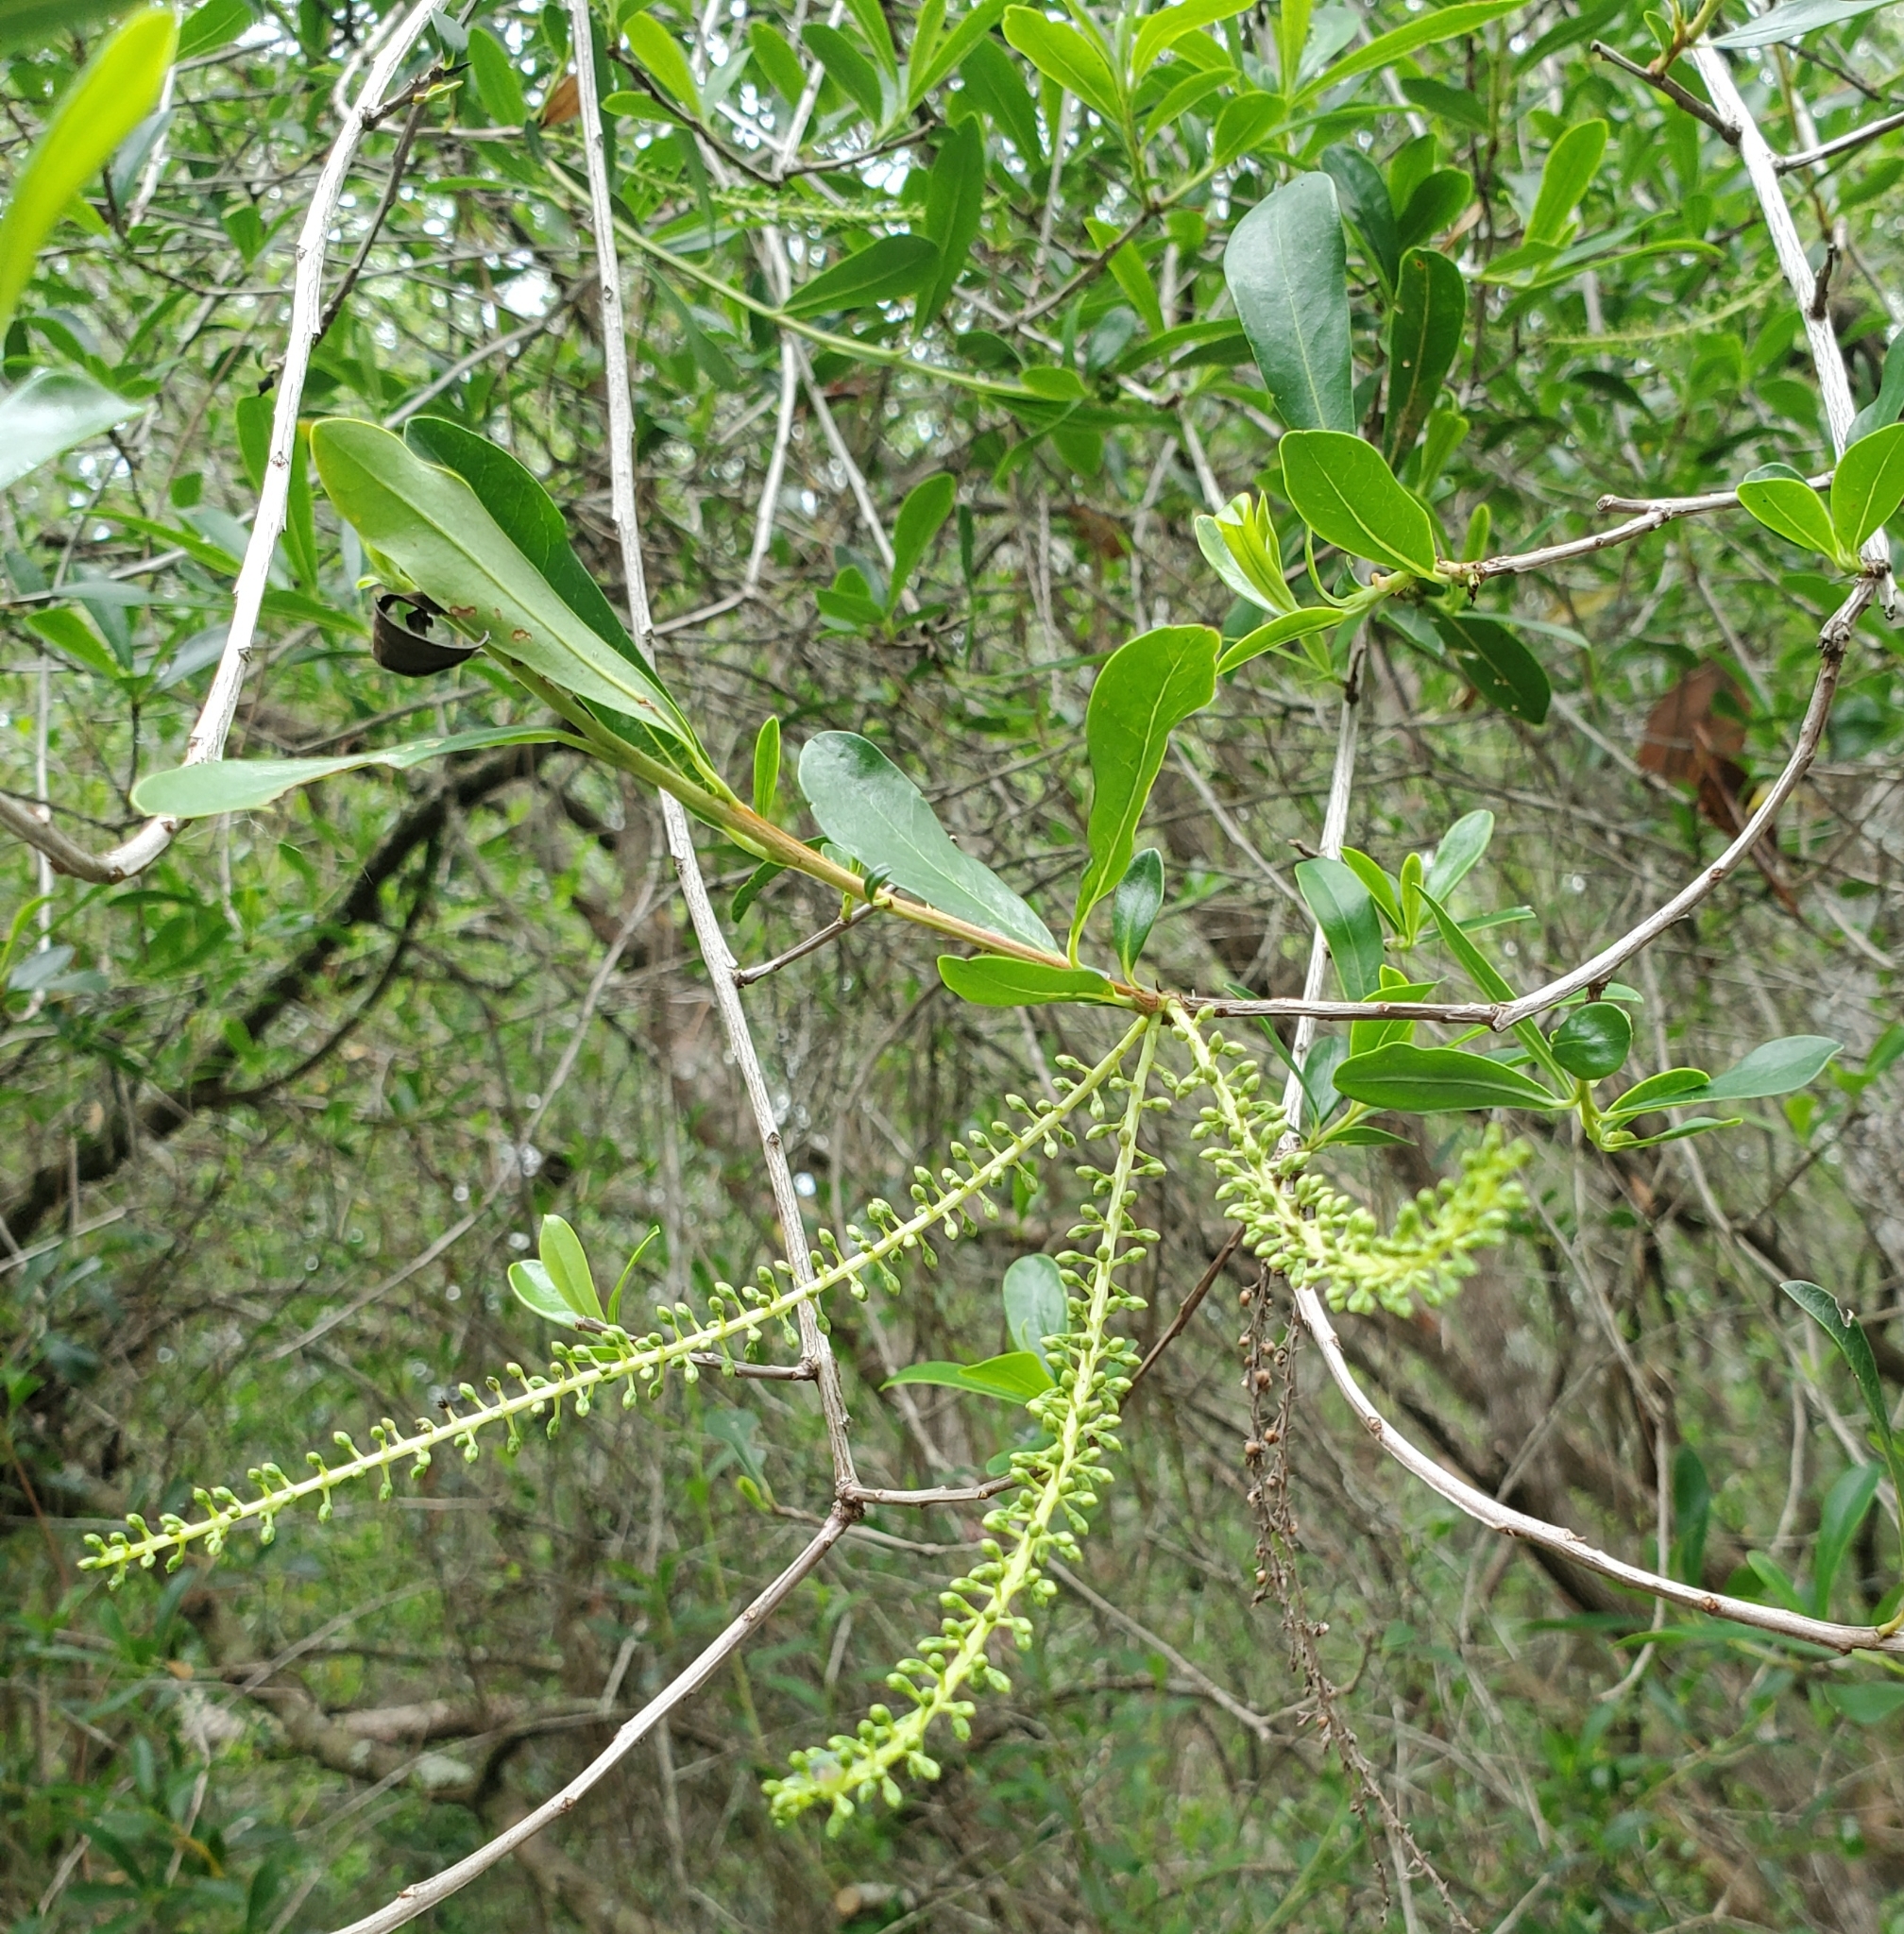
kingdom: Plantae
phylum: Tracheophyta
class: Magnoliopsida
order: Ericales
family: Cyrillaceae
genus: Cyrilla
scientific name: Cyrilla racemiflora
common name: Black titi
